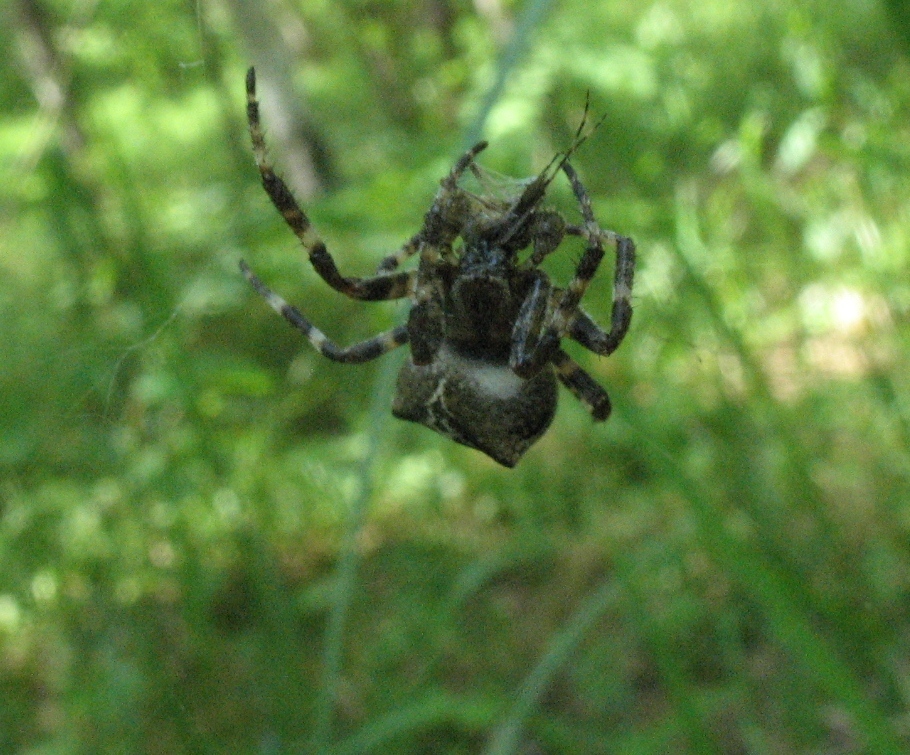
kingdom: Animalia
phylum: Arthropoda
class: Arachnida
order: Araneae
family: Araneidae
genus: Araneus
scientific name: Araneus angulatus
